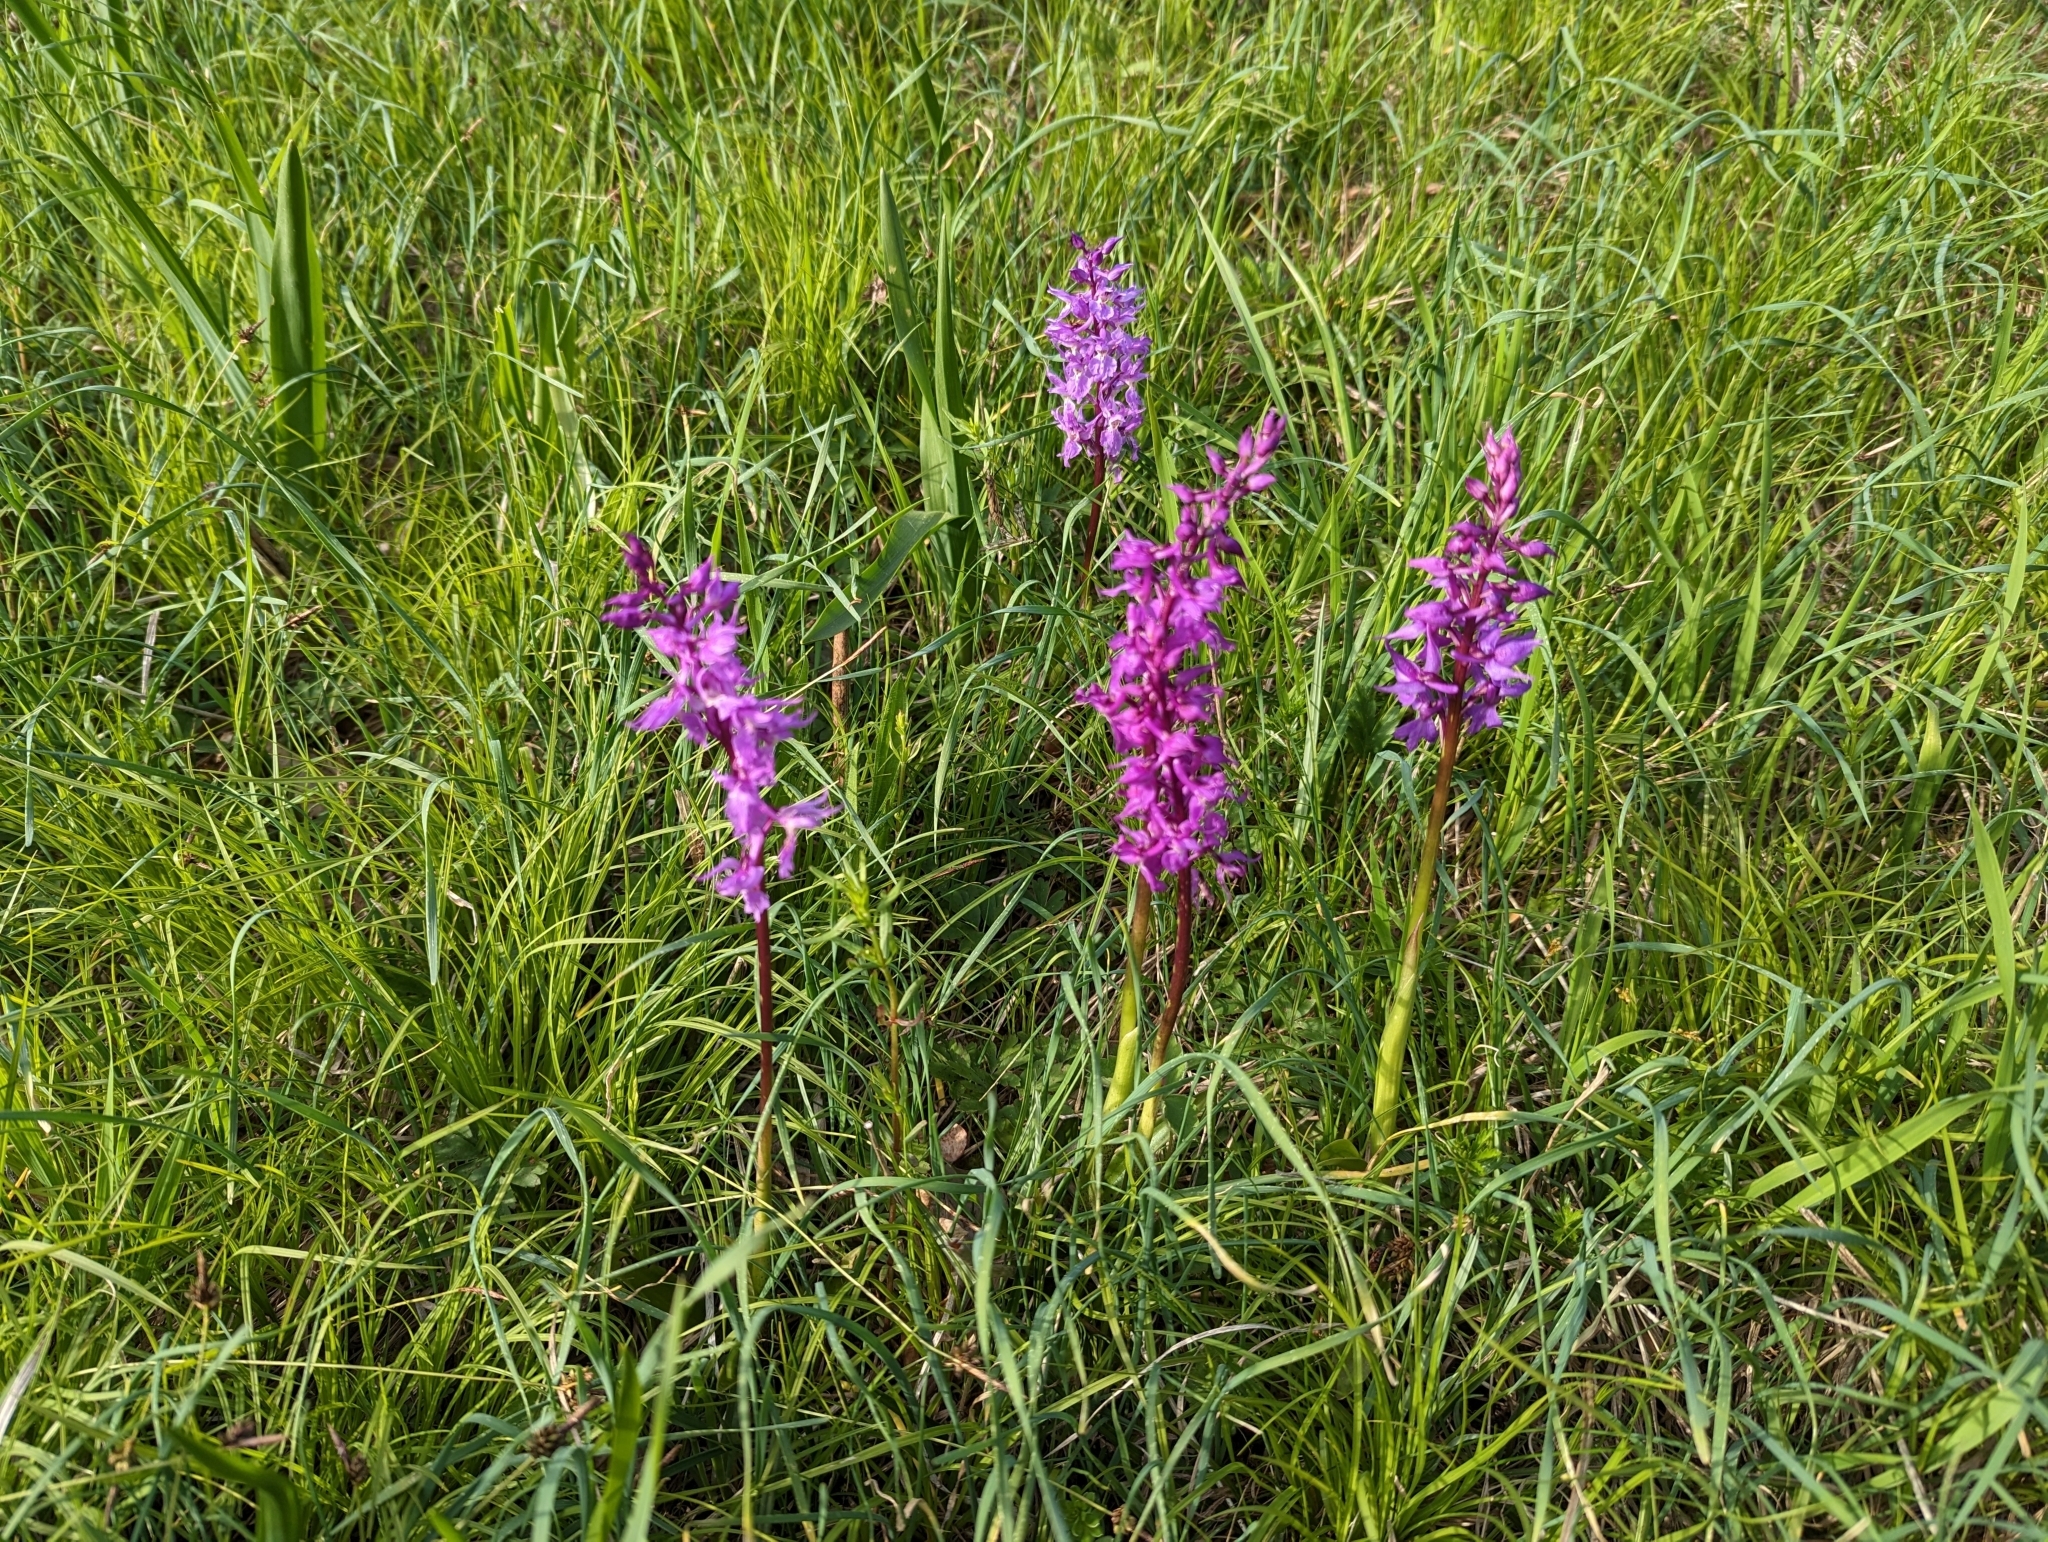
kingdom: Plantae
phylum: Tracheophyta
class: Liliopsida
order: Asparagales
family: Orchidaceae
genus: Orchis
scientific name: Orchis mascula
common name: Early-purple orchid
